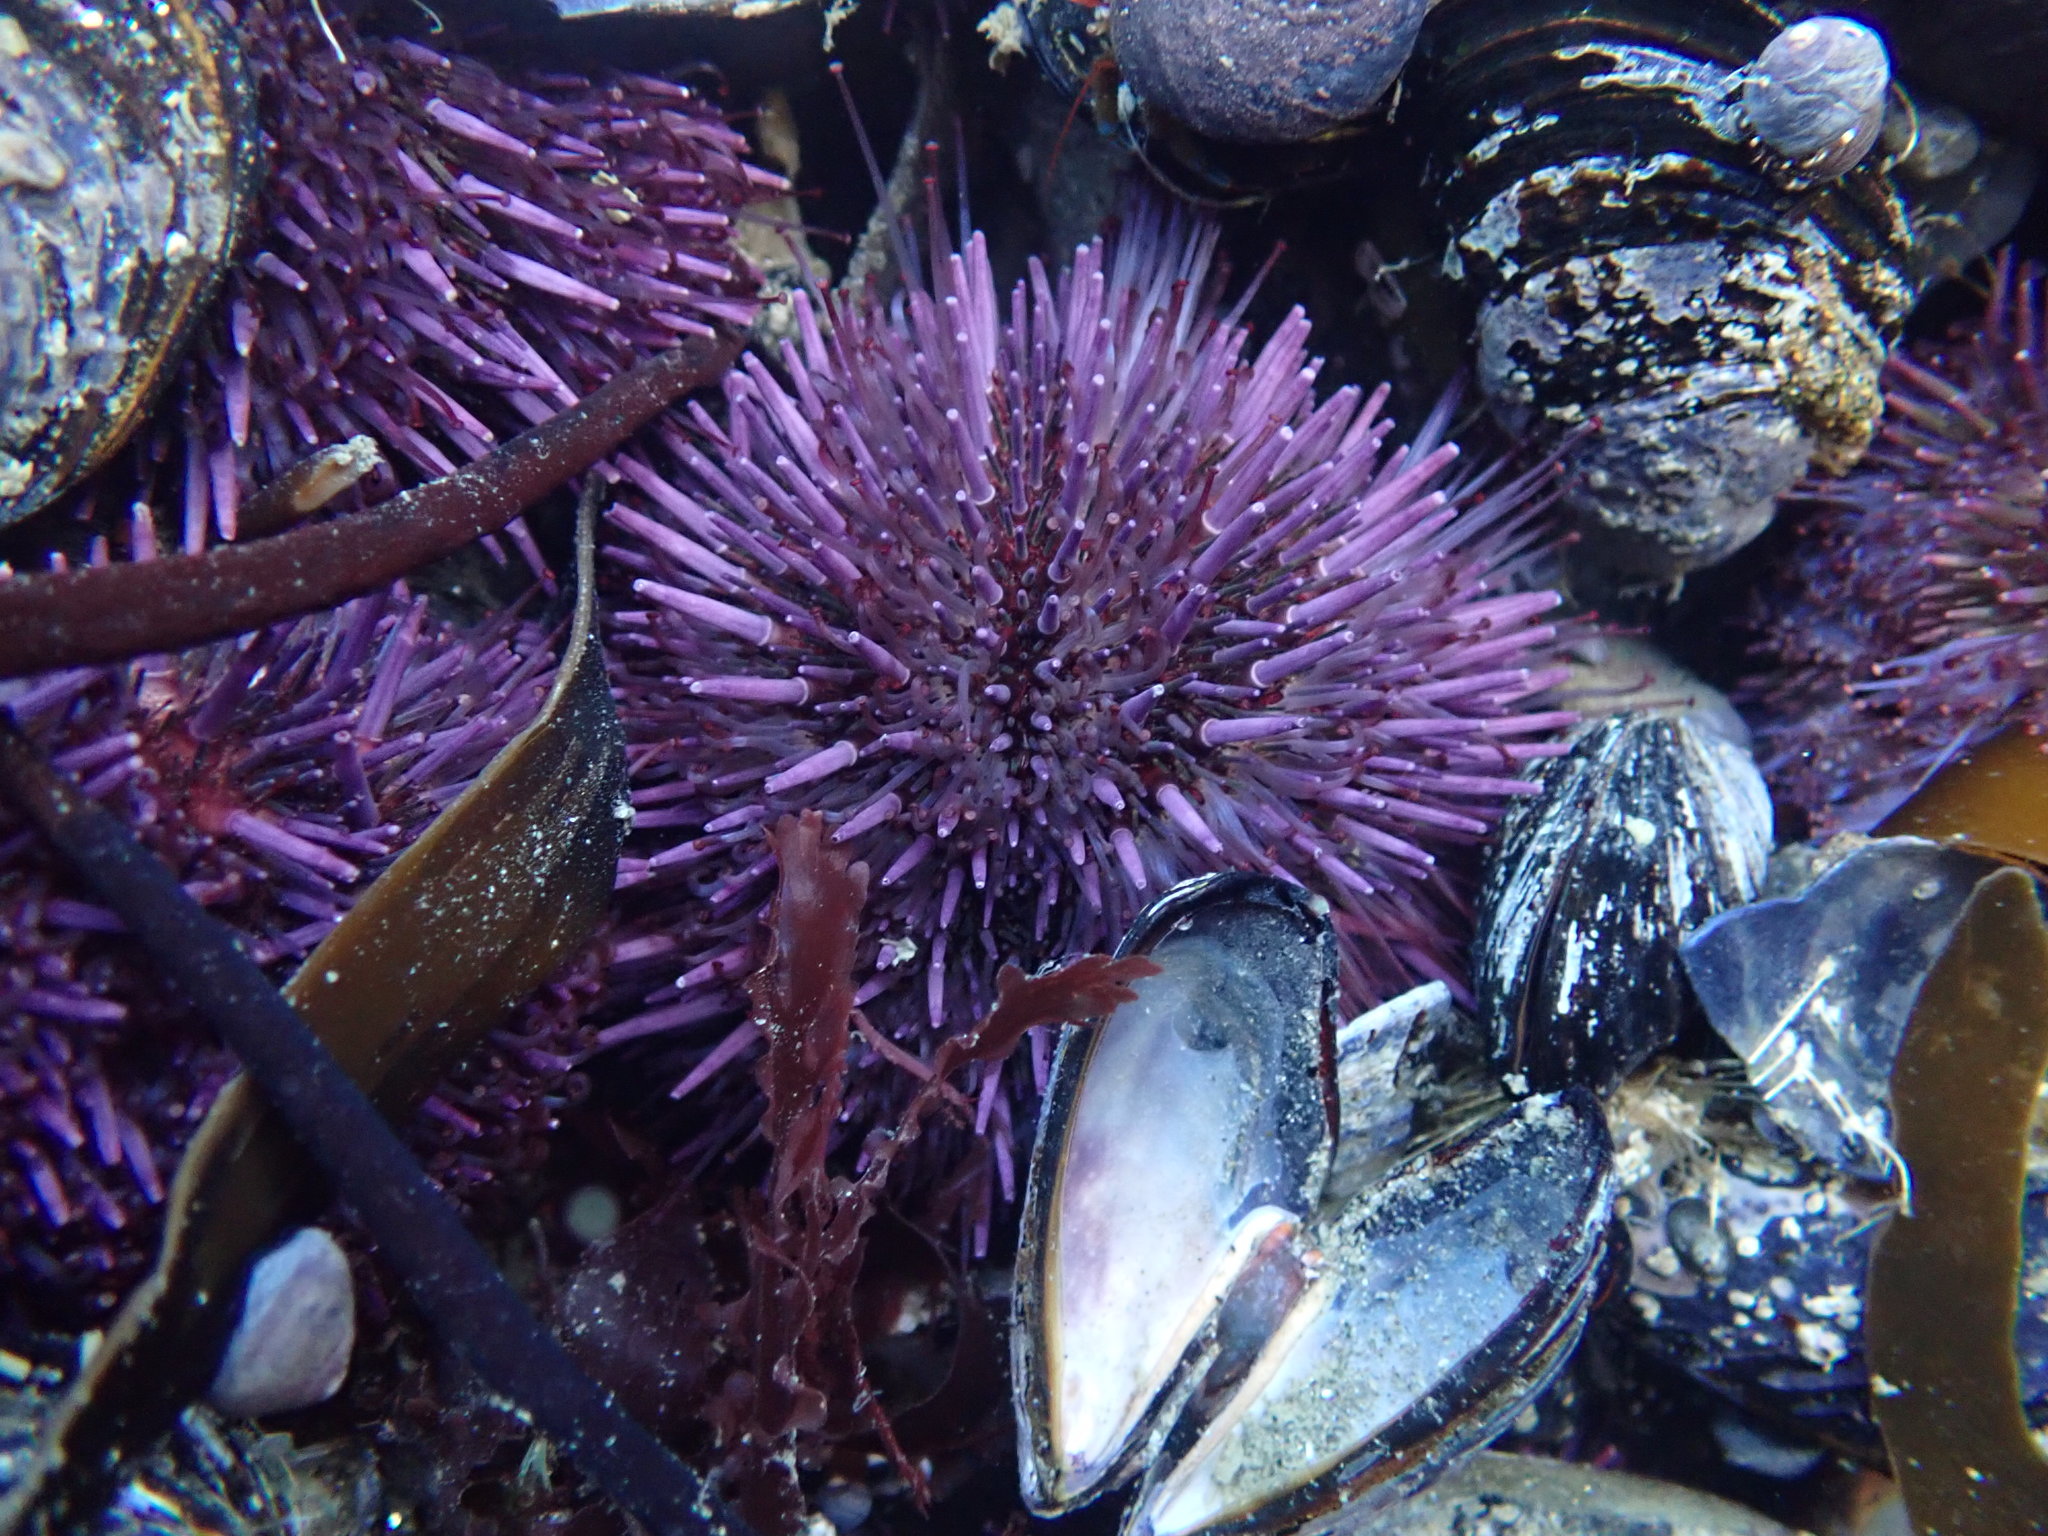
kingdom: Animalia
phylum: Echinodermata
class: Echinoidea
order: Camarodonta
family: Strongylocentrotidae
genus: Strongylocentrotus
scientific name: Strongylocentrotus purpuratus
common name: Purple sea urchin
